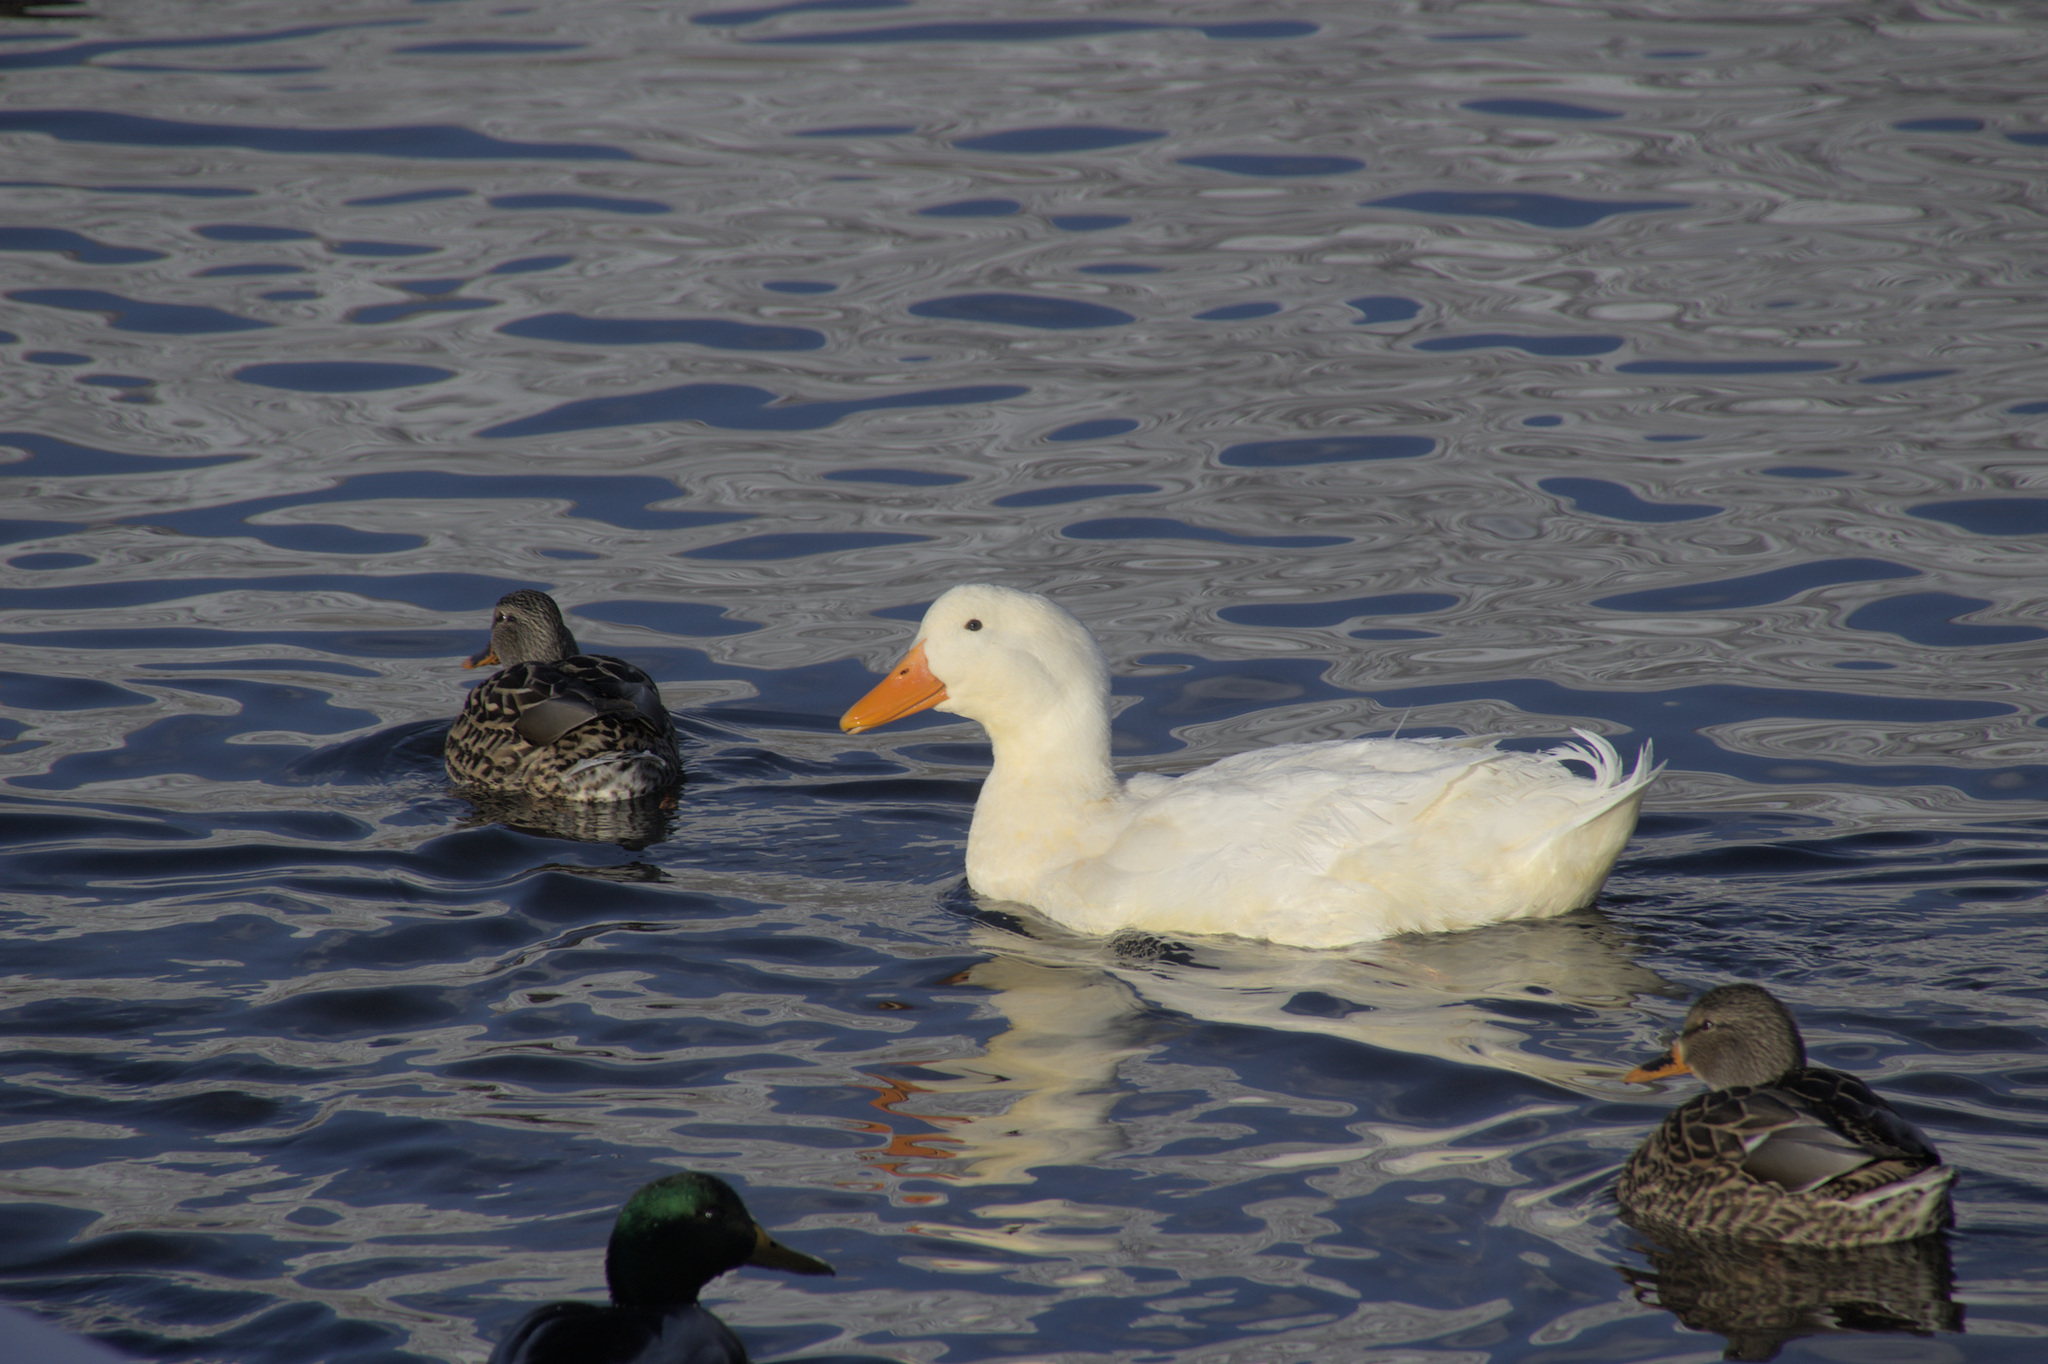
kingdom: Animalia
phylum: Chordata
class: Aves
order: Anseriformes
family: Anatidae
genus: Anas
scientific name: Anas platyrhynchos
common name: Mallard
